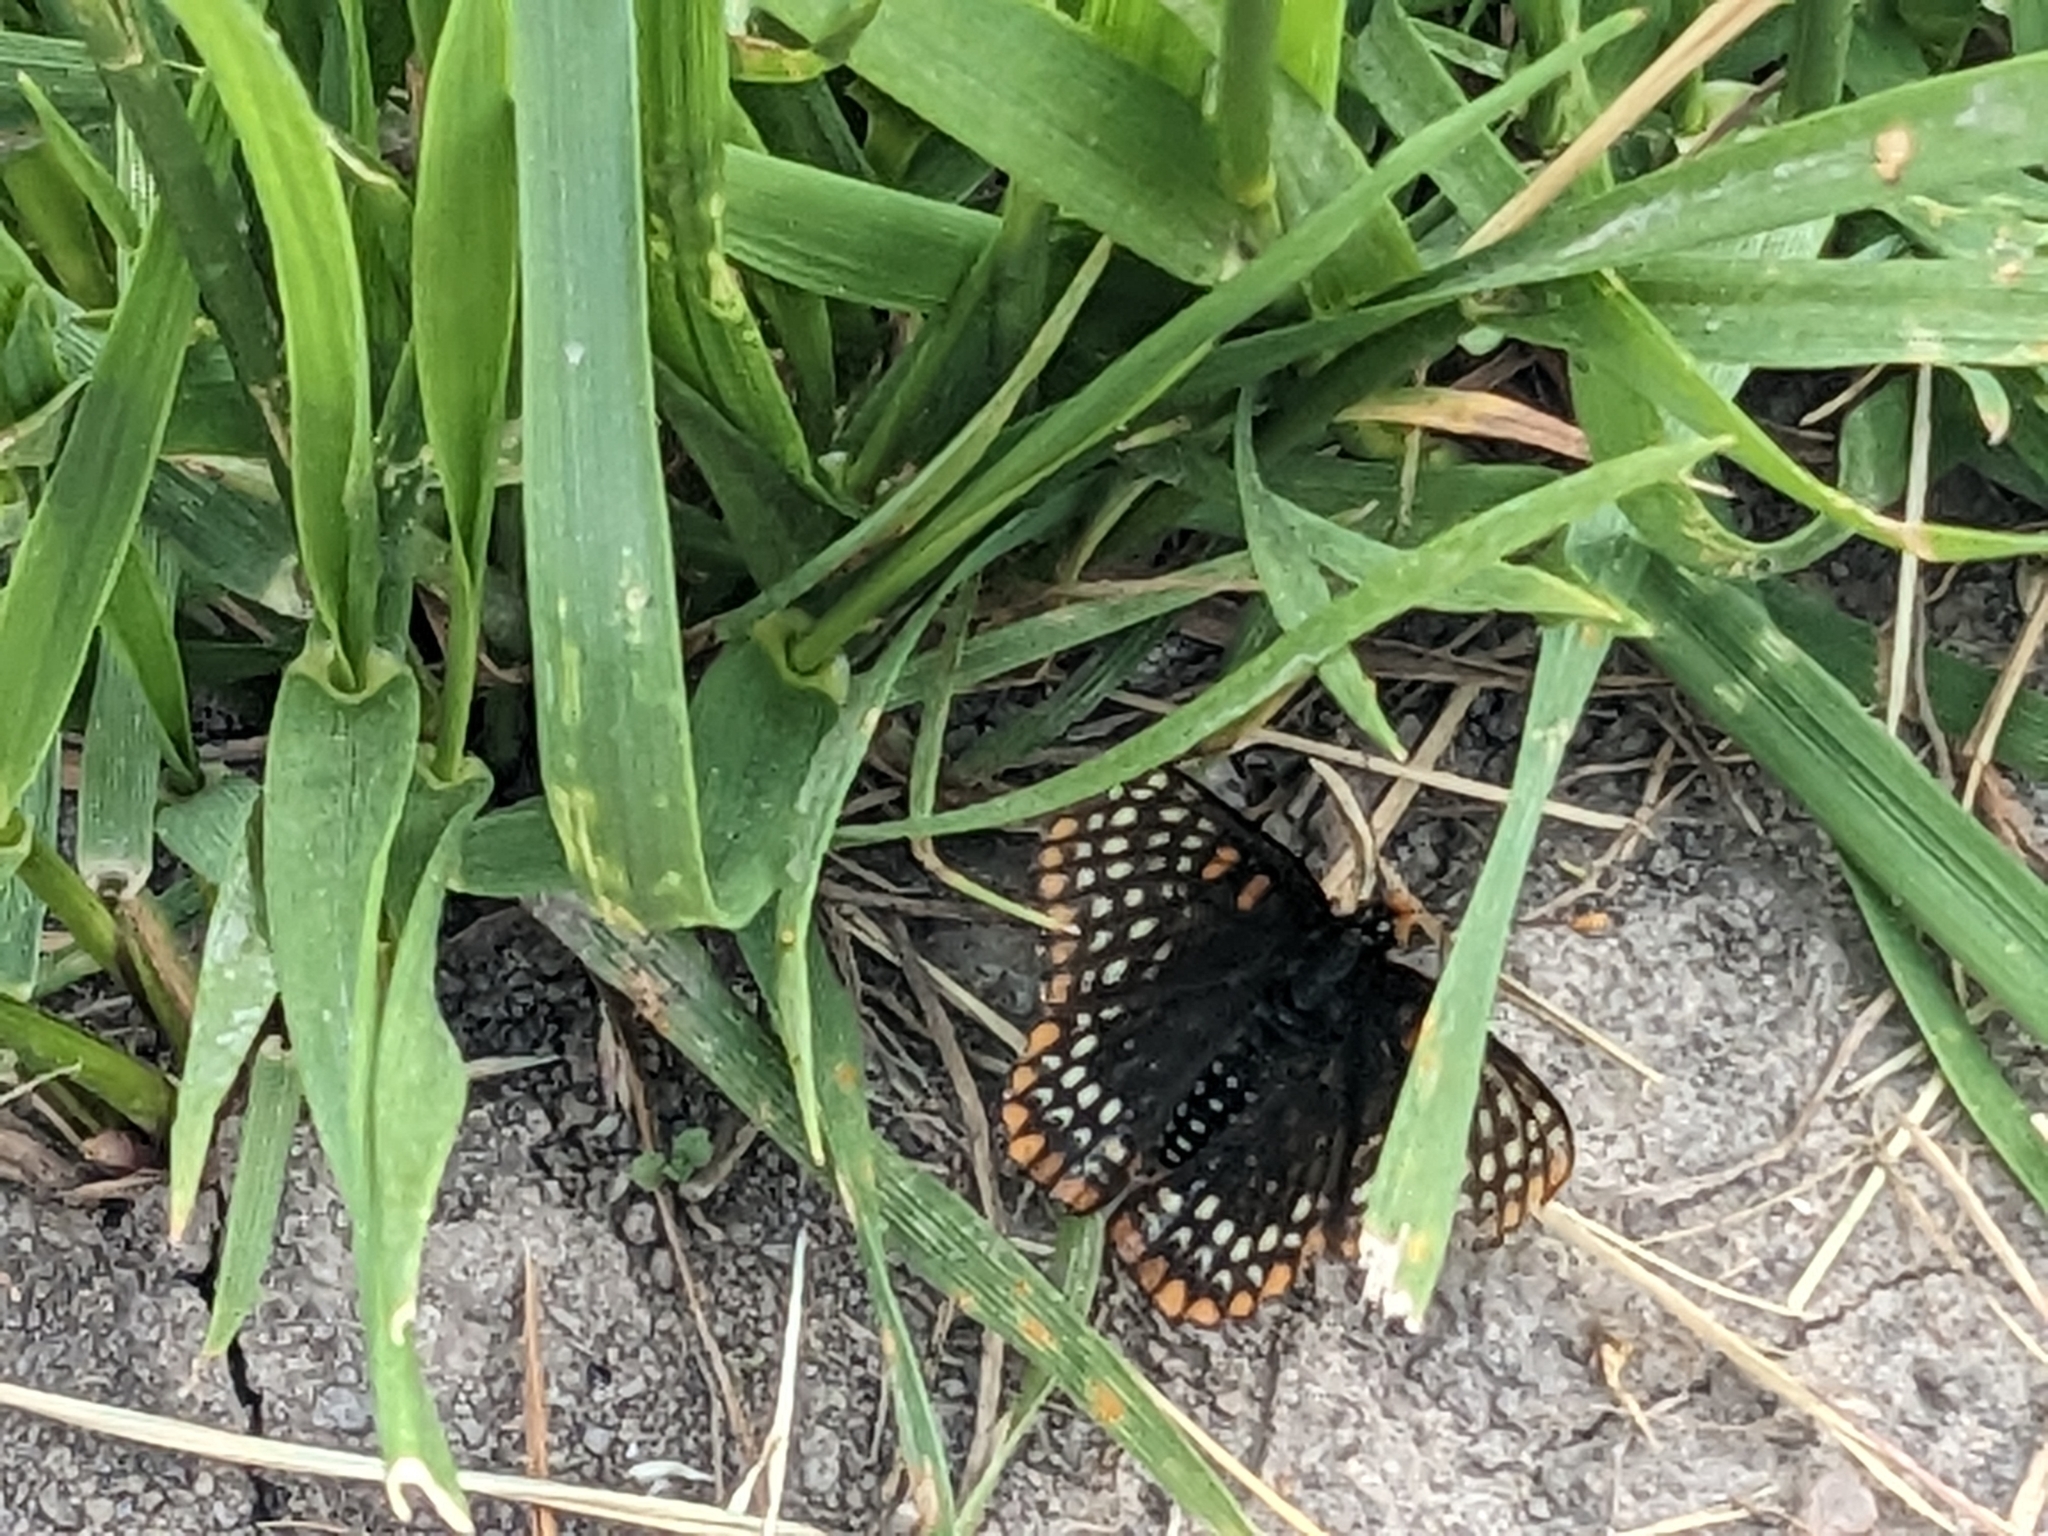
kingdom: Animalia
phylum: Arthropoda
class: Insecta
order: Lepidoptera
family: Nymphalidae
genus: Euphydryas
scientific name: Euphydryas phaeton
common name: Baltimore checkerspot
